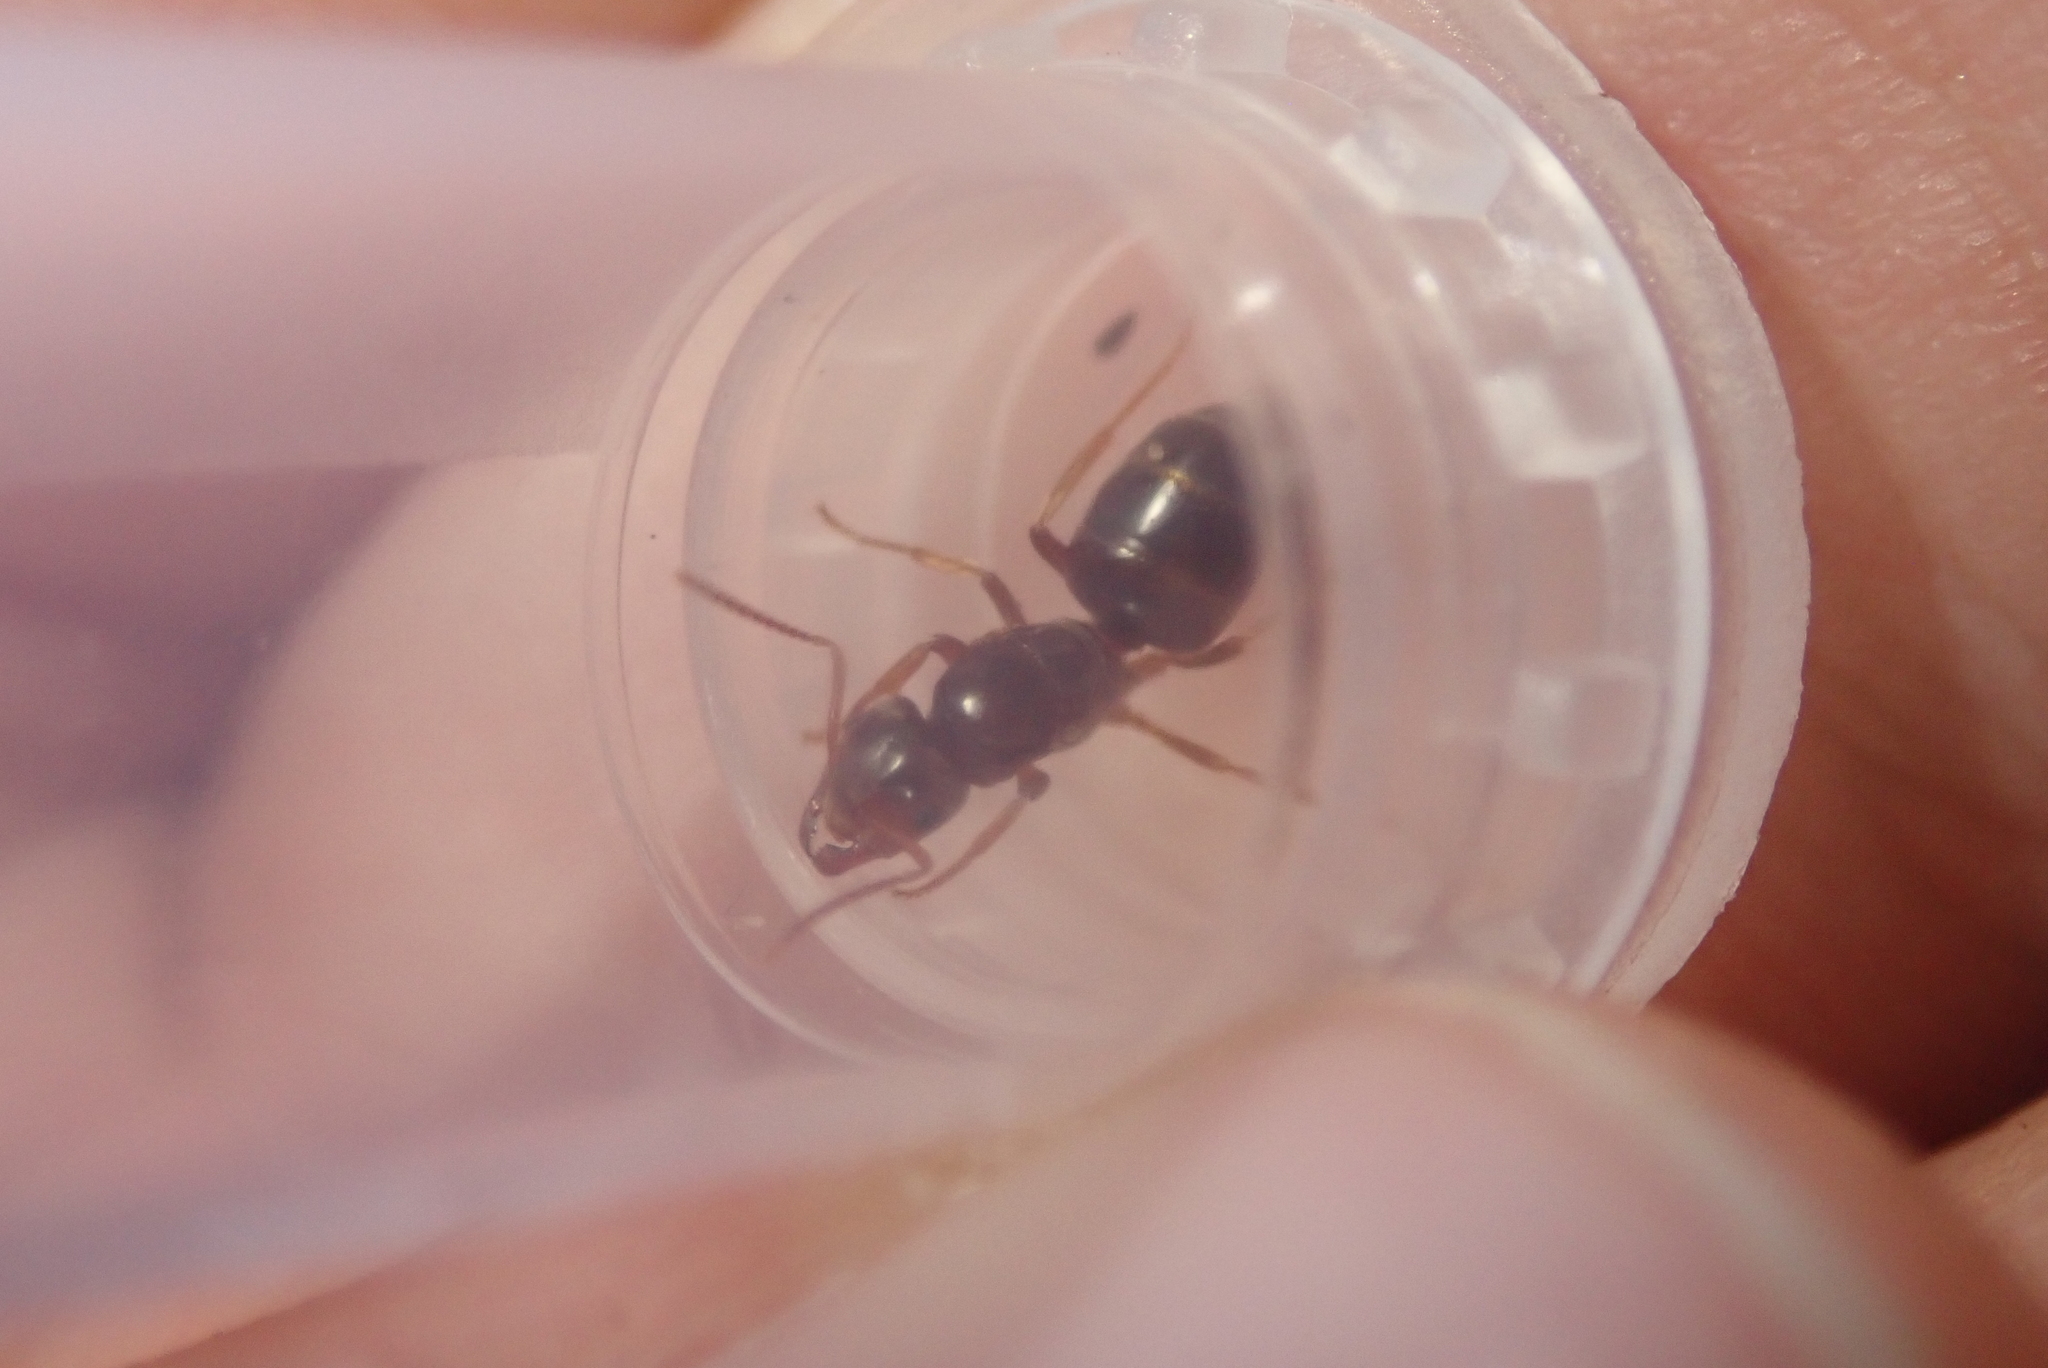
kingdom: Animalia
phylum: Arthropoda
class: Insecta
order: Hymenoptera
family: Formicidae
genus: Lasius
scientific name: Lasius speculiventris
